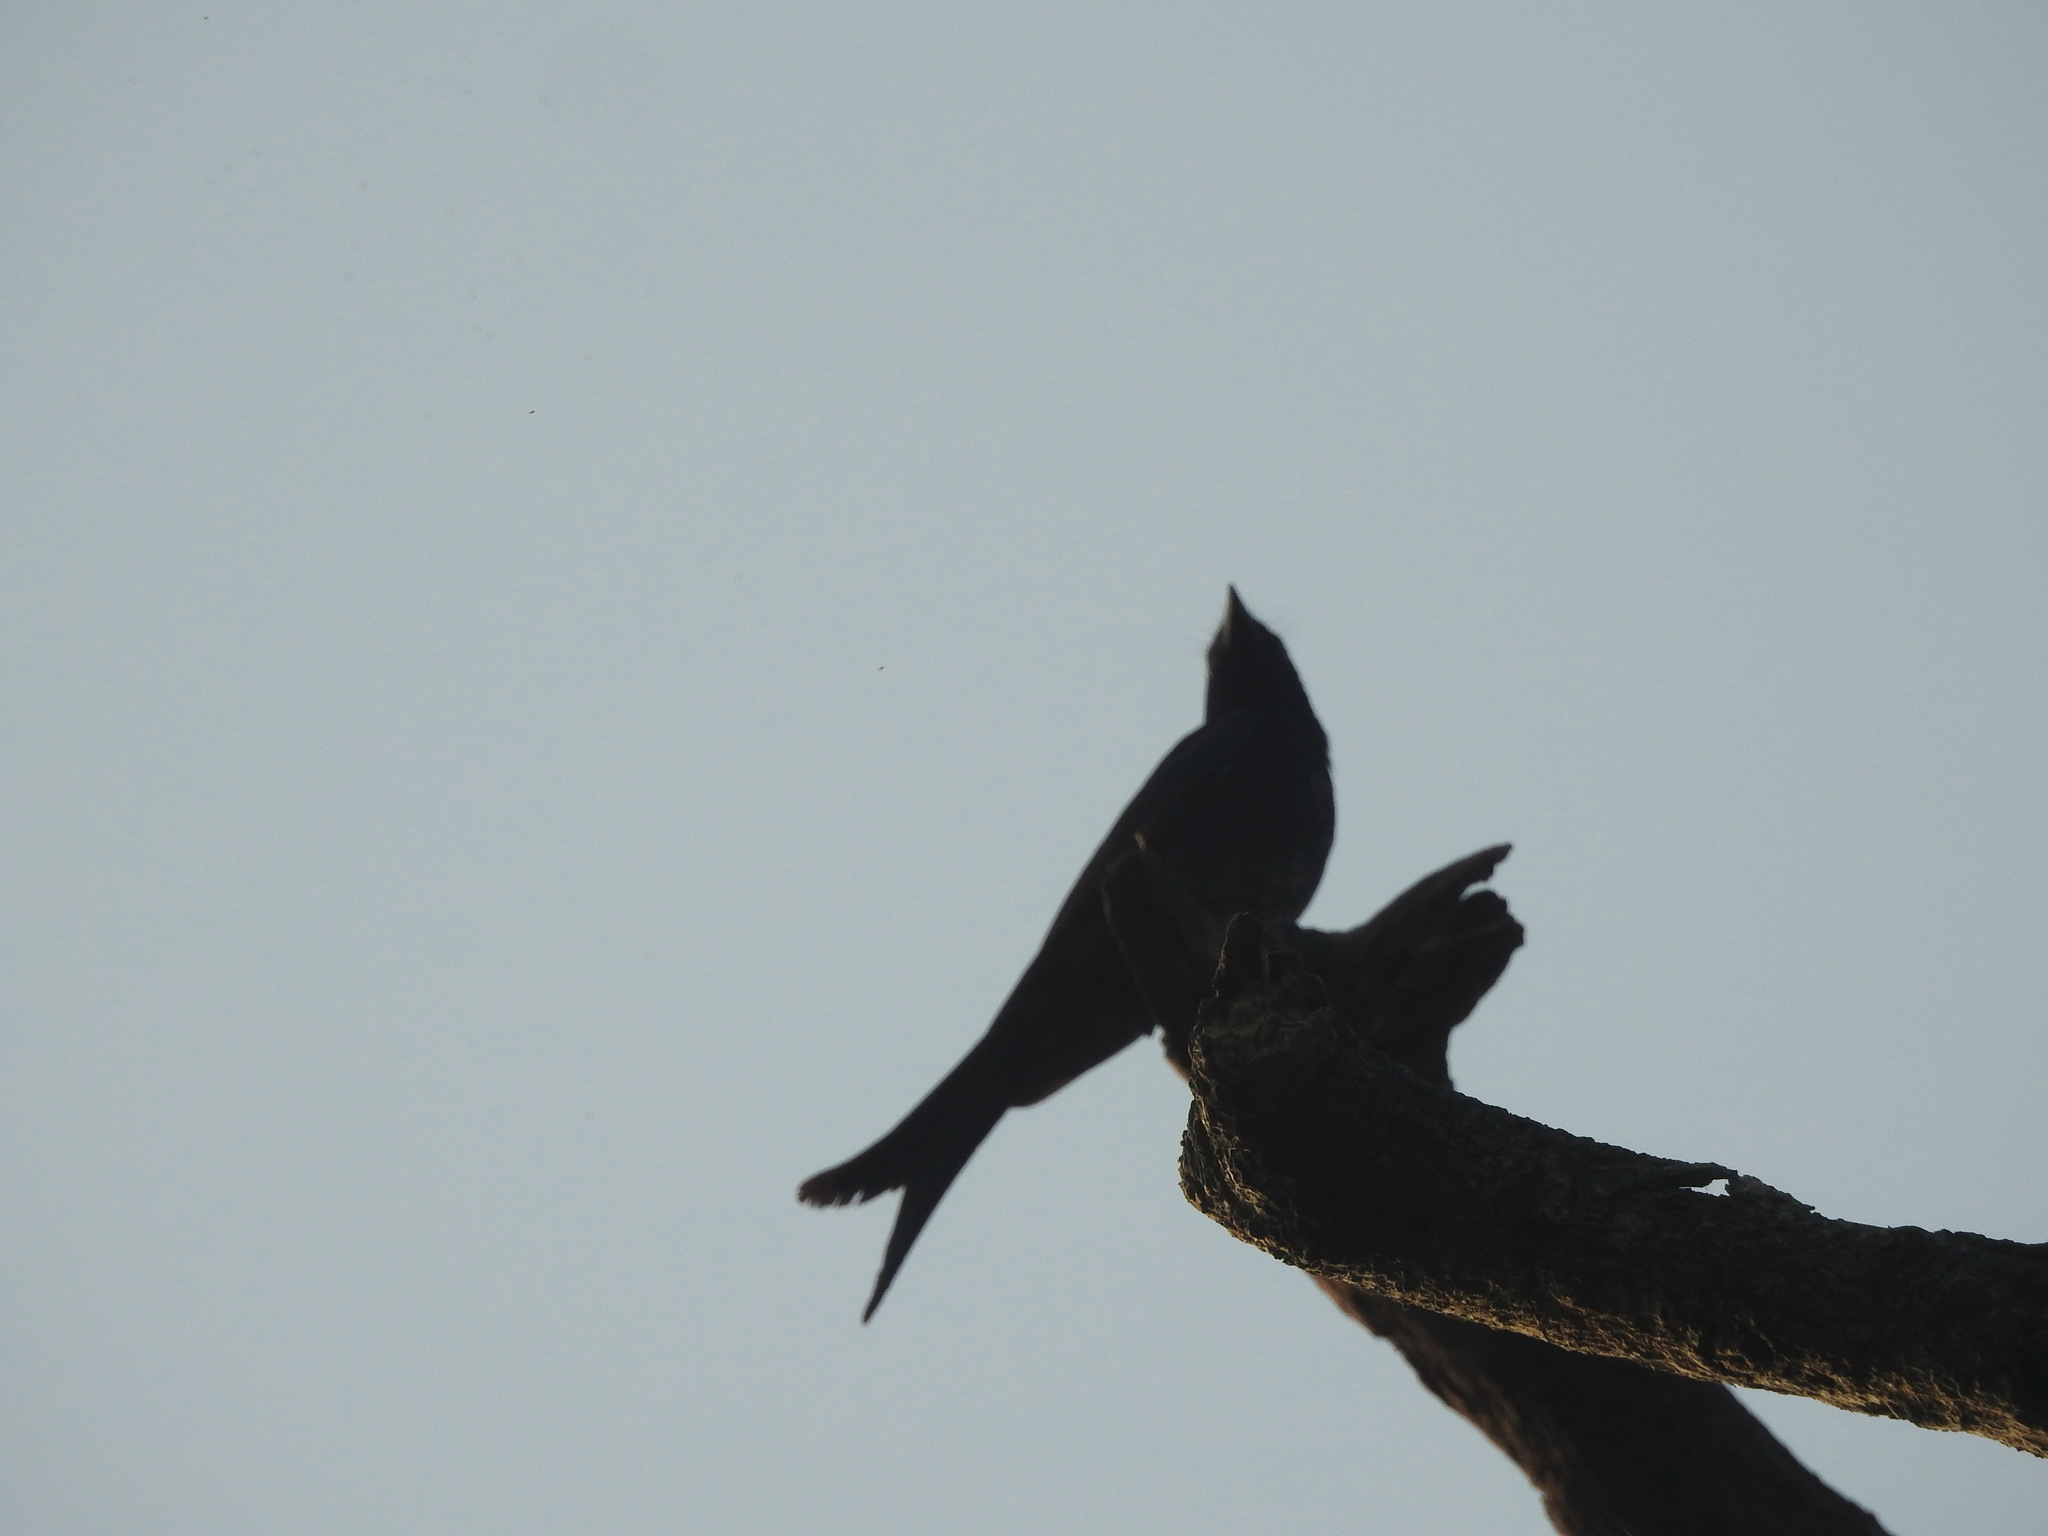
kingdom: Animalia
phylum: Chordata
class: Aves
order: Passeriformes
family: Dicruridae
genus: Dicrurus
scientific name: Dicrurus macrocercus
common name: Black drongo
